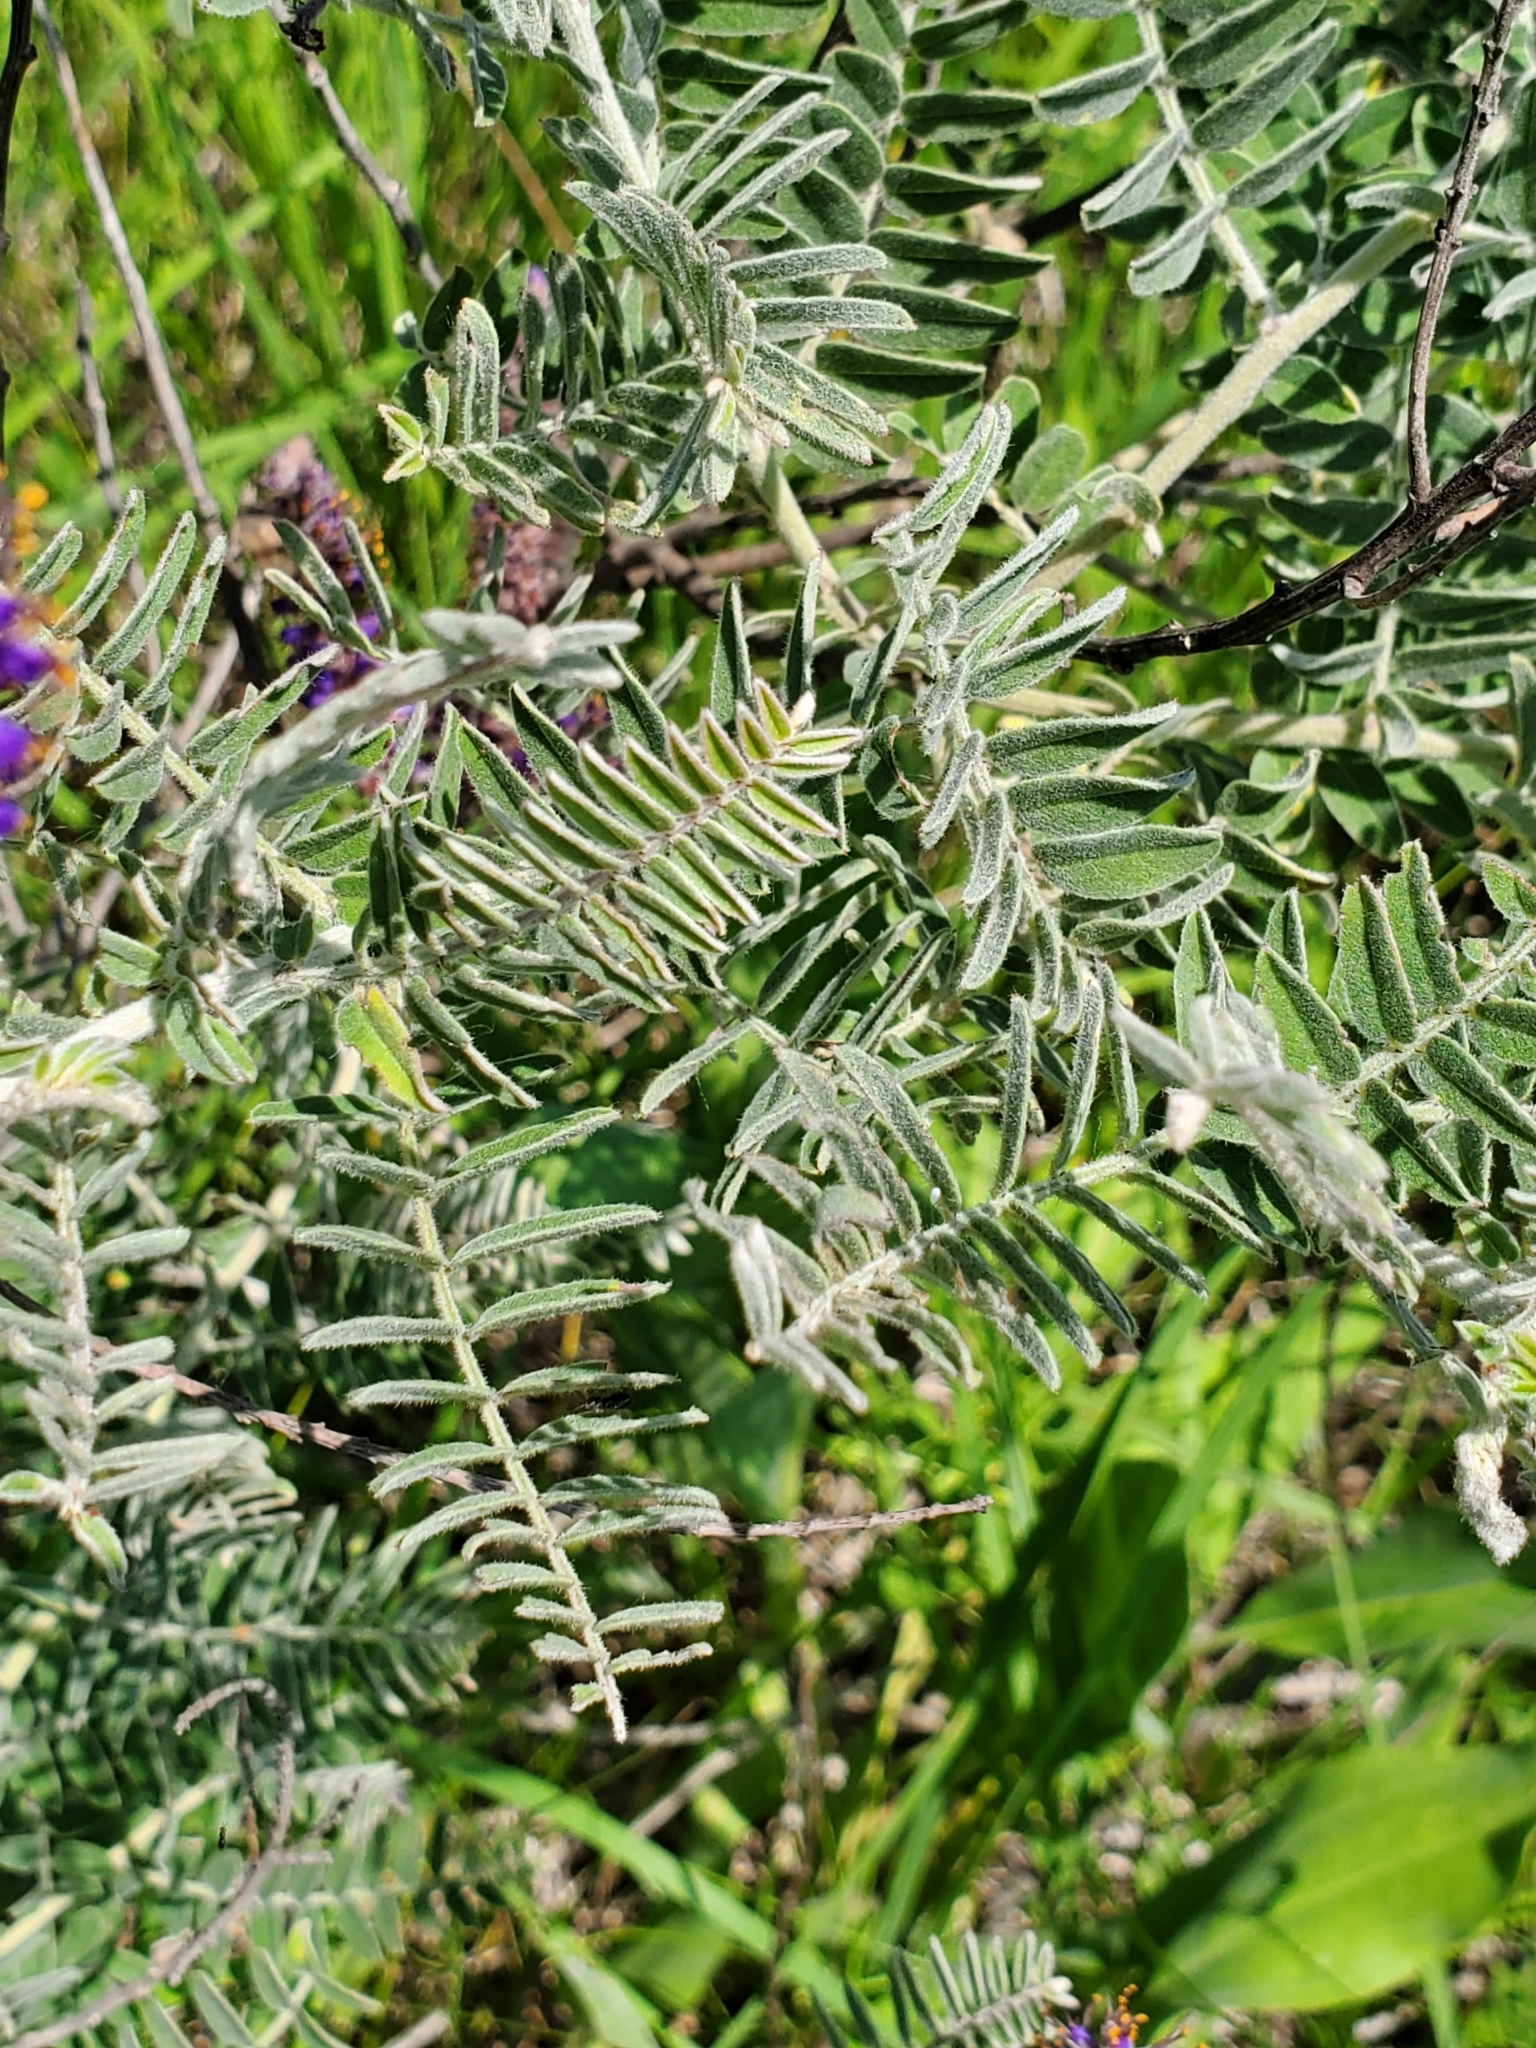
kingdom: Plantae
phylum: Tracheophyta
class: Magnoliopsida
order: Fabales
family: Fabaceae
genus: Amorpha
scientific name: Amorpha canescens
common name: Leadplant
